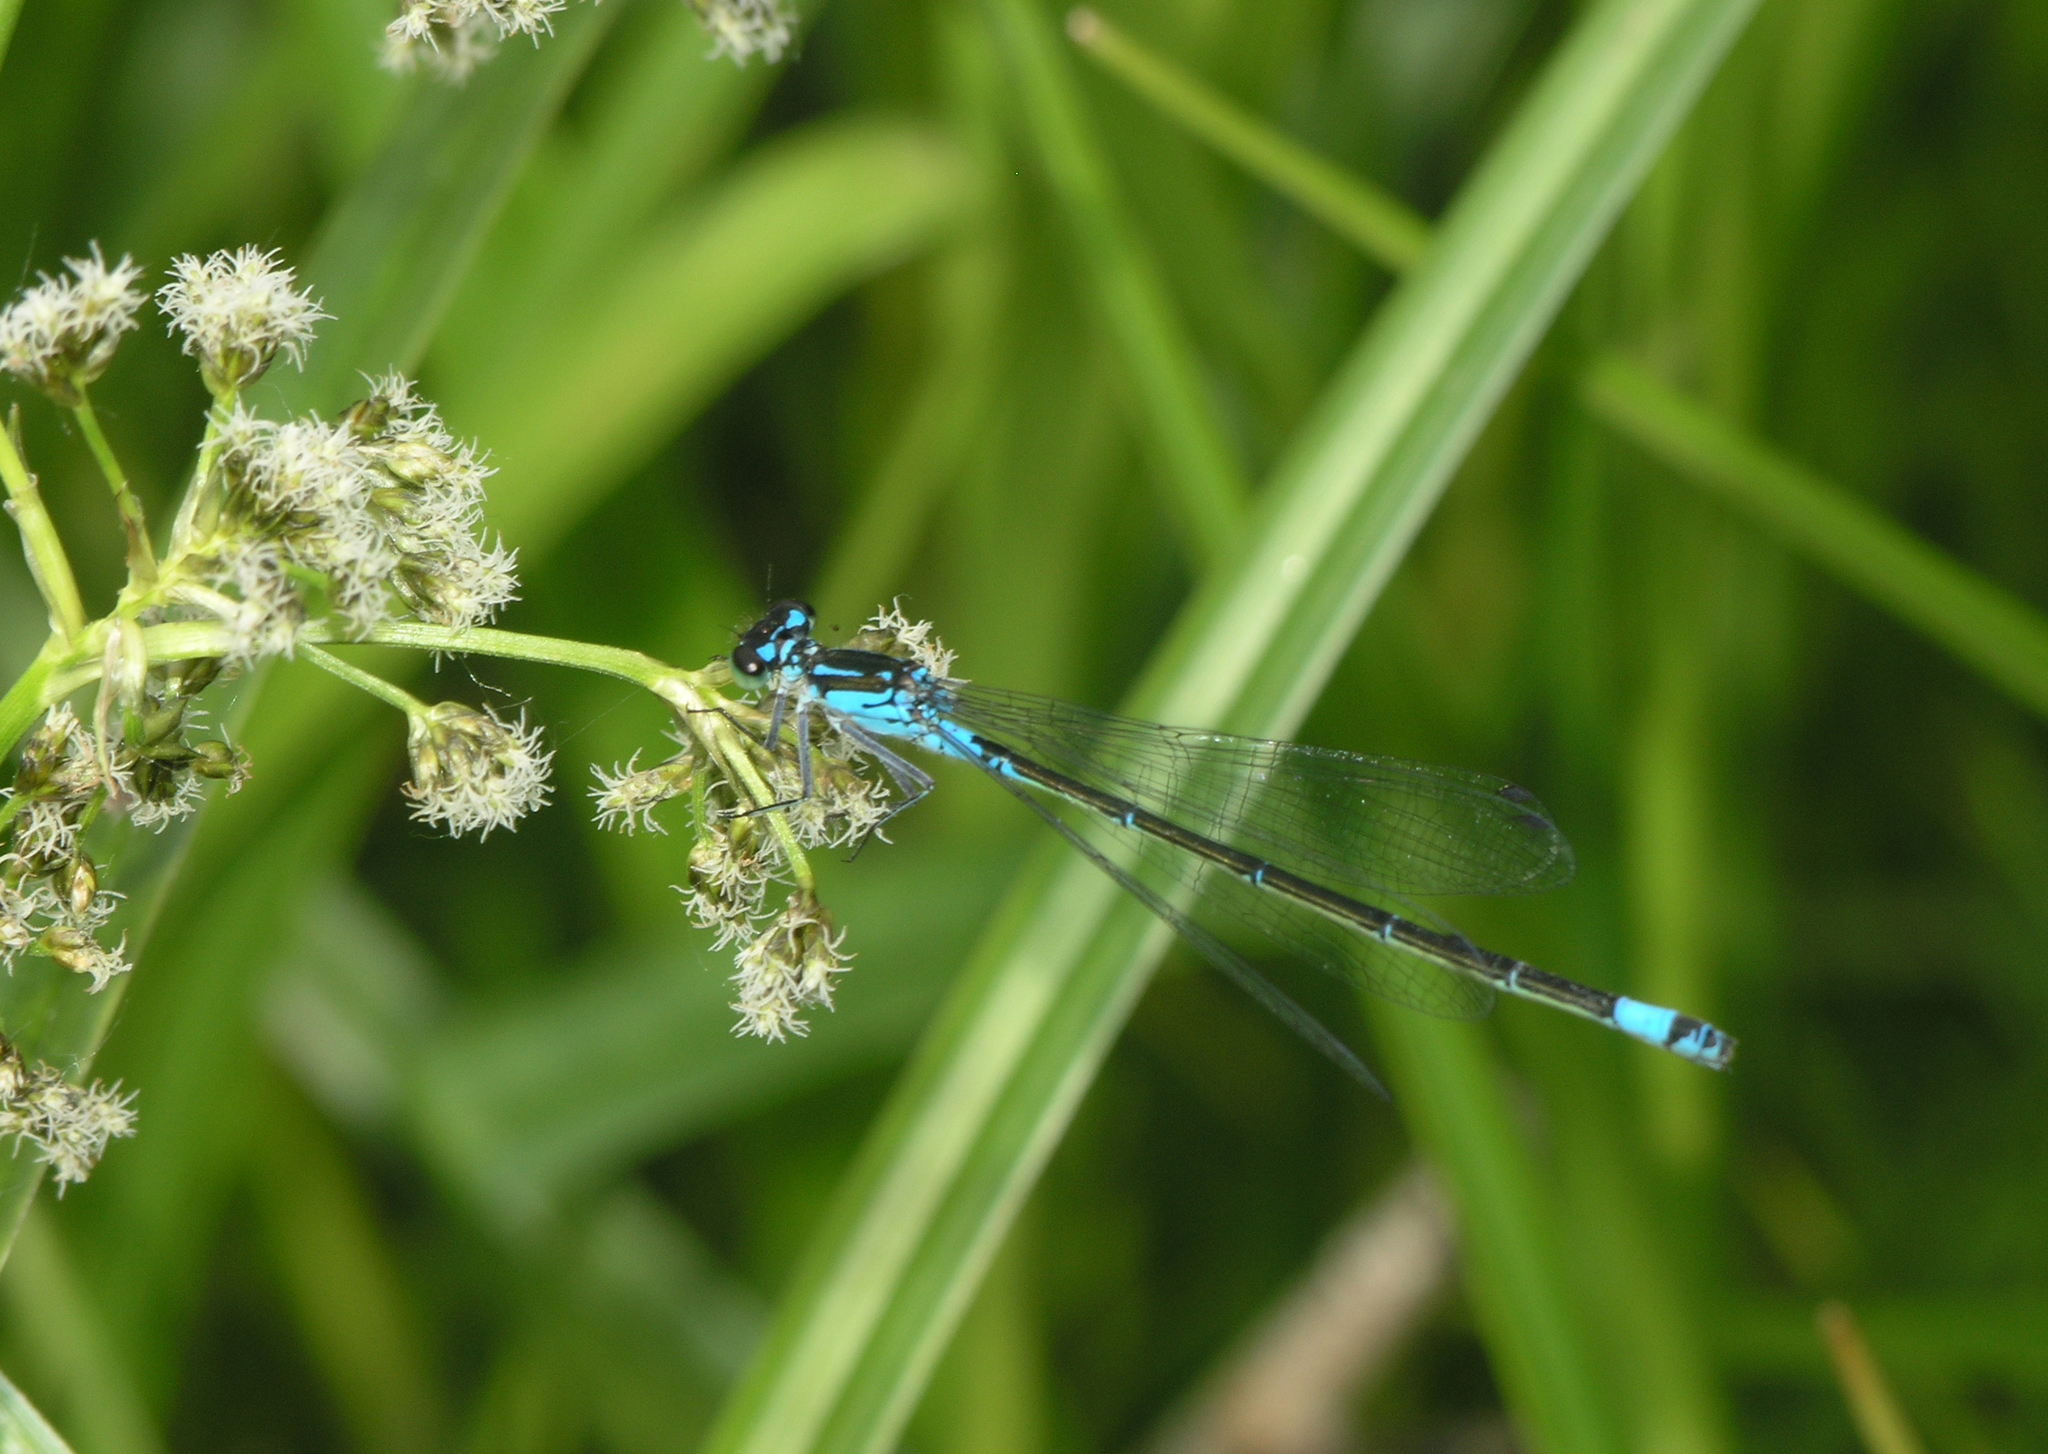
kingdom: Animalia
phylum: Arthropoda
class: Insecta
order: Odonata
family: Coenagrionidae
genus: Coenagrion
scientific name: Coenagrion pulchellum
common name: Variable bluet
